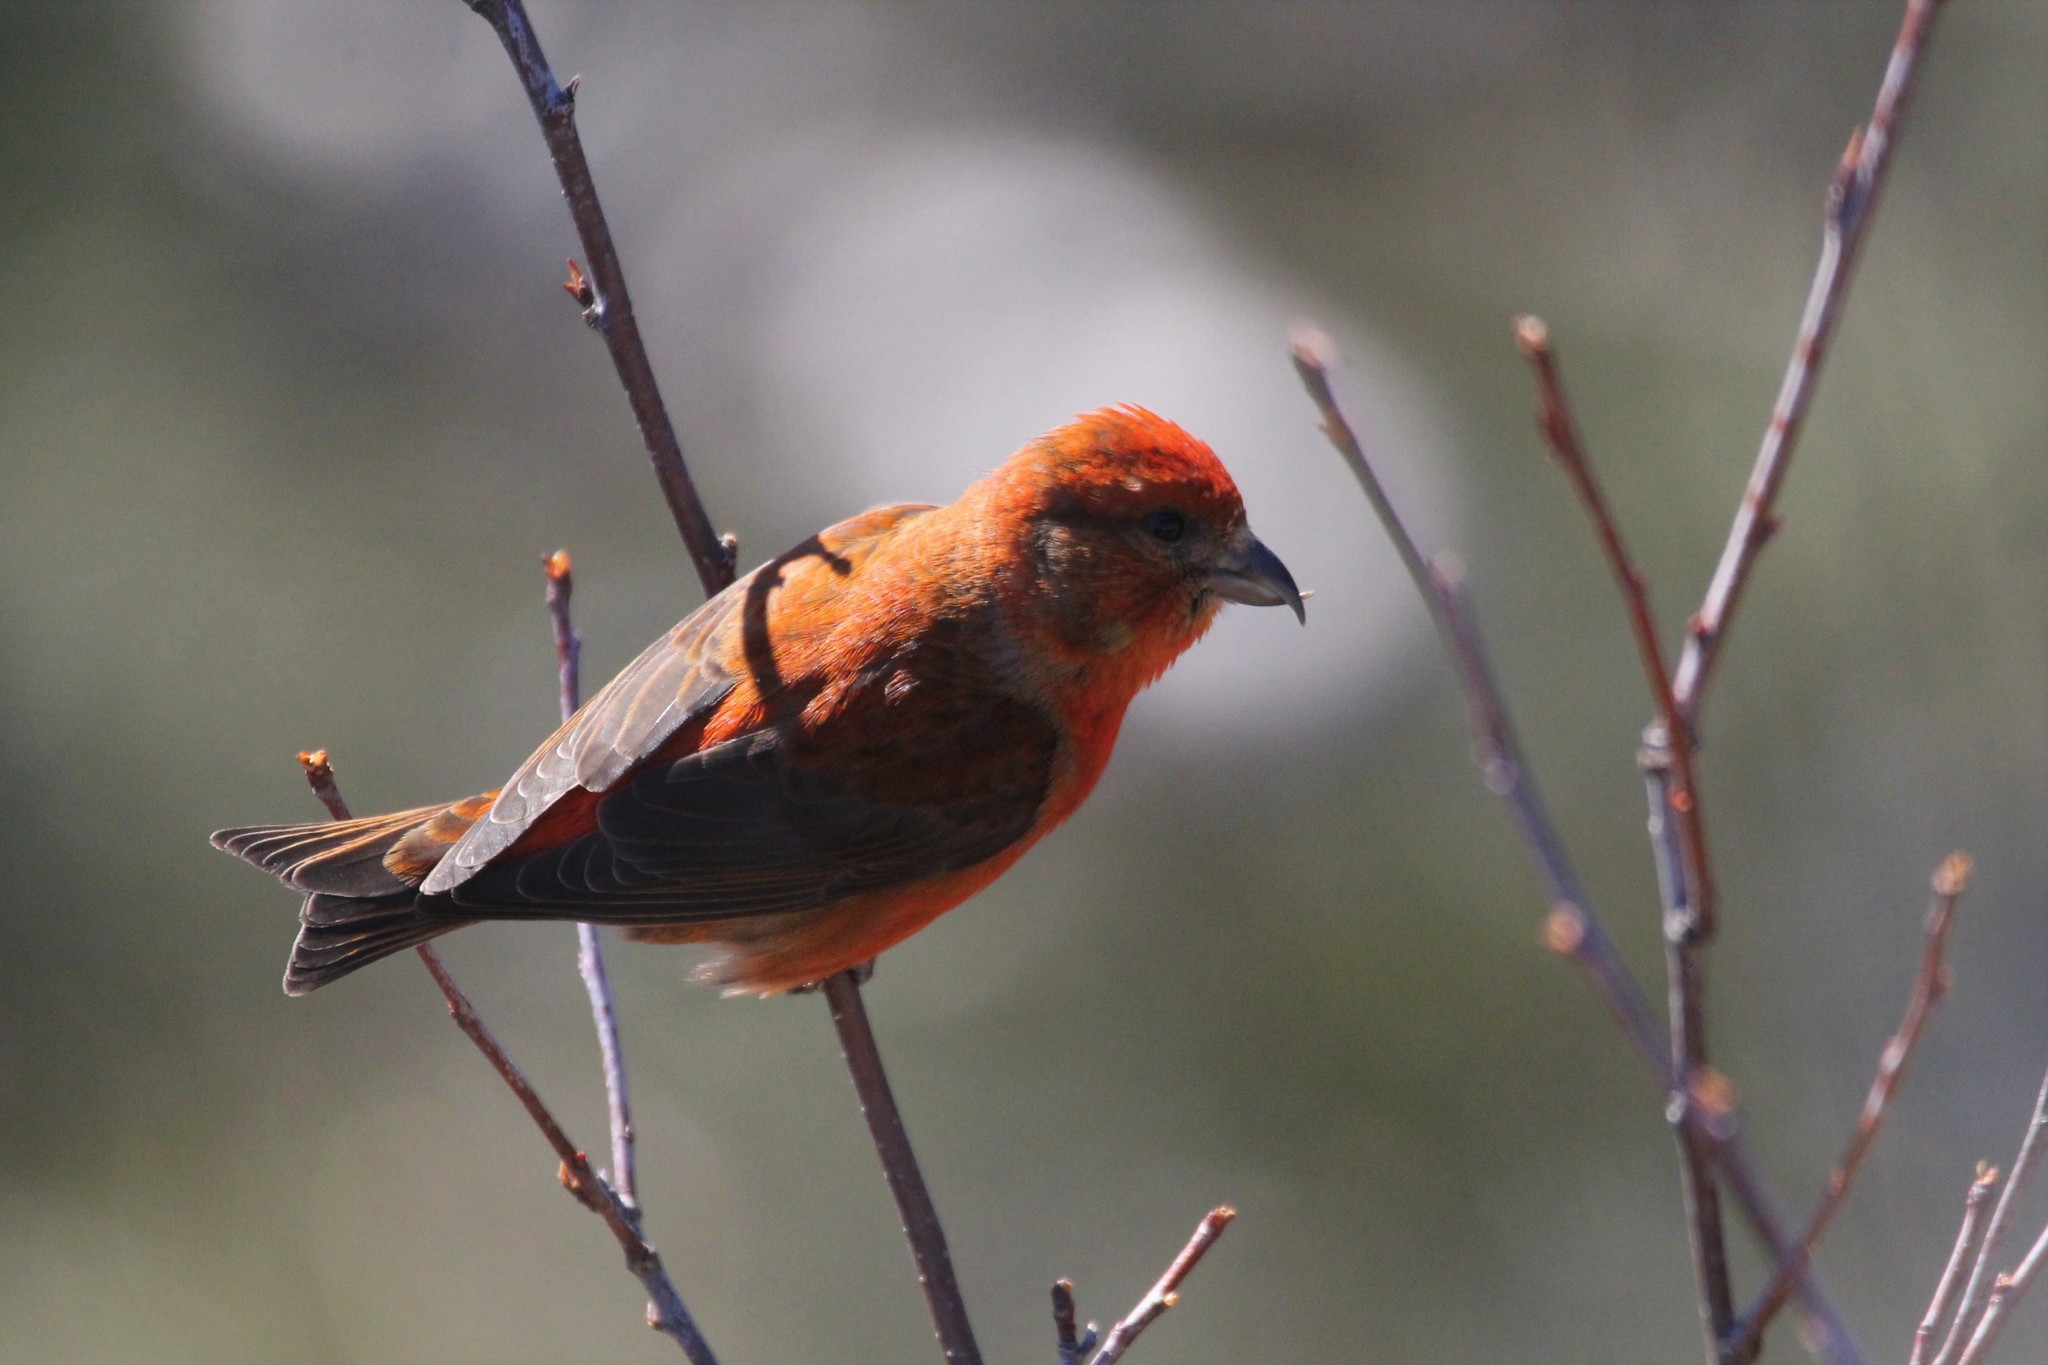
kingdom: Animalia
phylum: Chordata
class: Aves
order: Passeriformes
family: Fringillidae
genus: Loxia
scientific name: Loxia curvirostra
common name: Red crossbill
